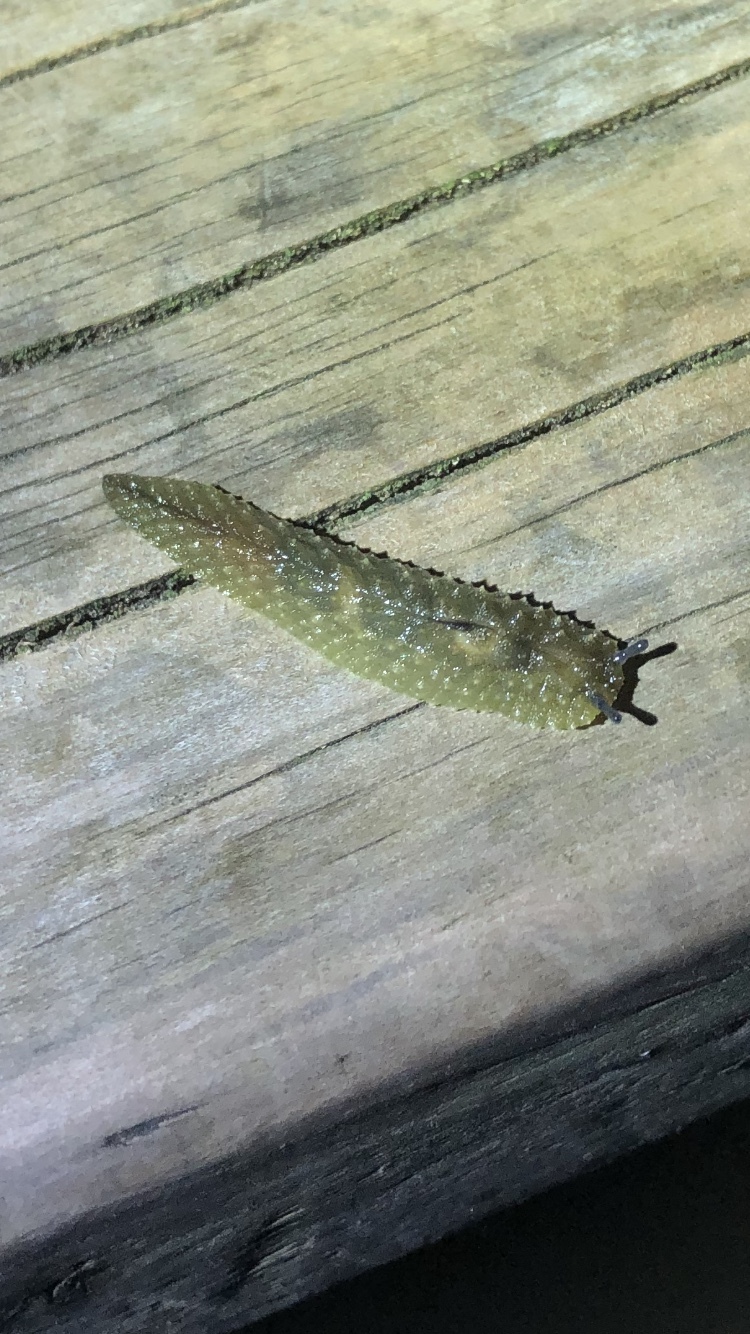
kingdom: Animalia
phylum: Mollusca
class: Gastropoda
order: Stylommatophora
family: Athoracophoridae
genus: Athoracophorus
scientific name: Athoracophorus papillatus
